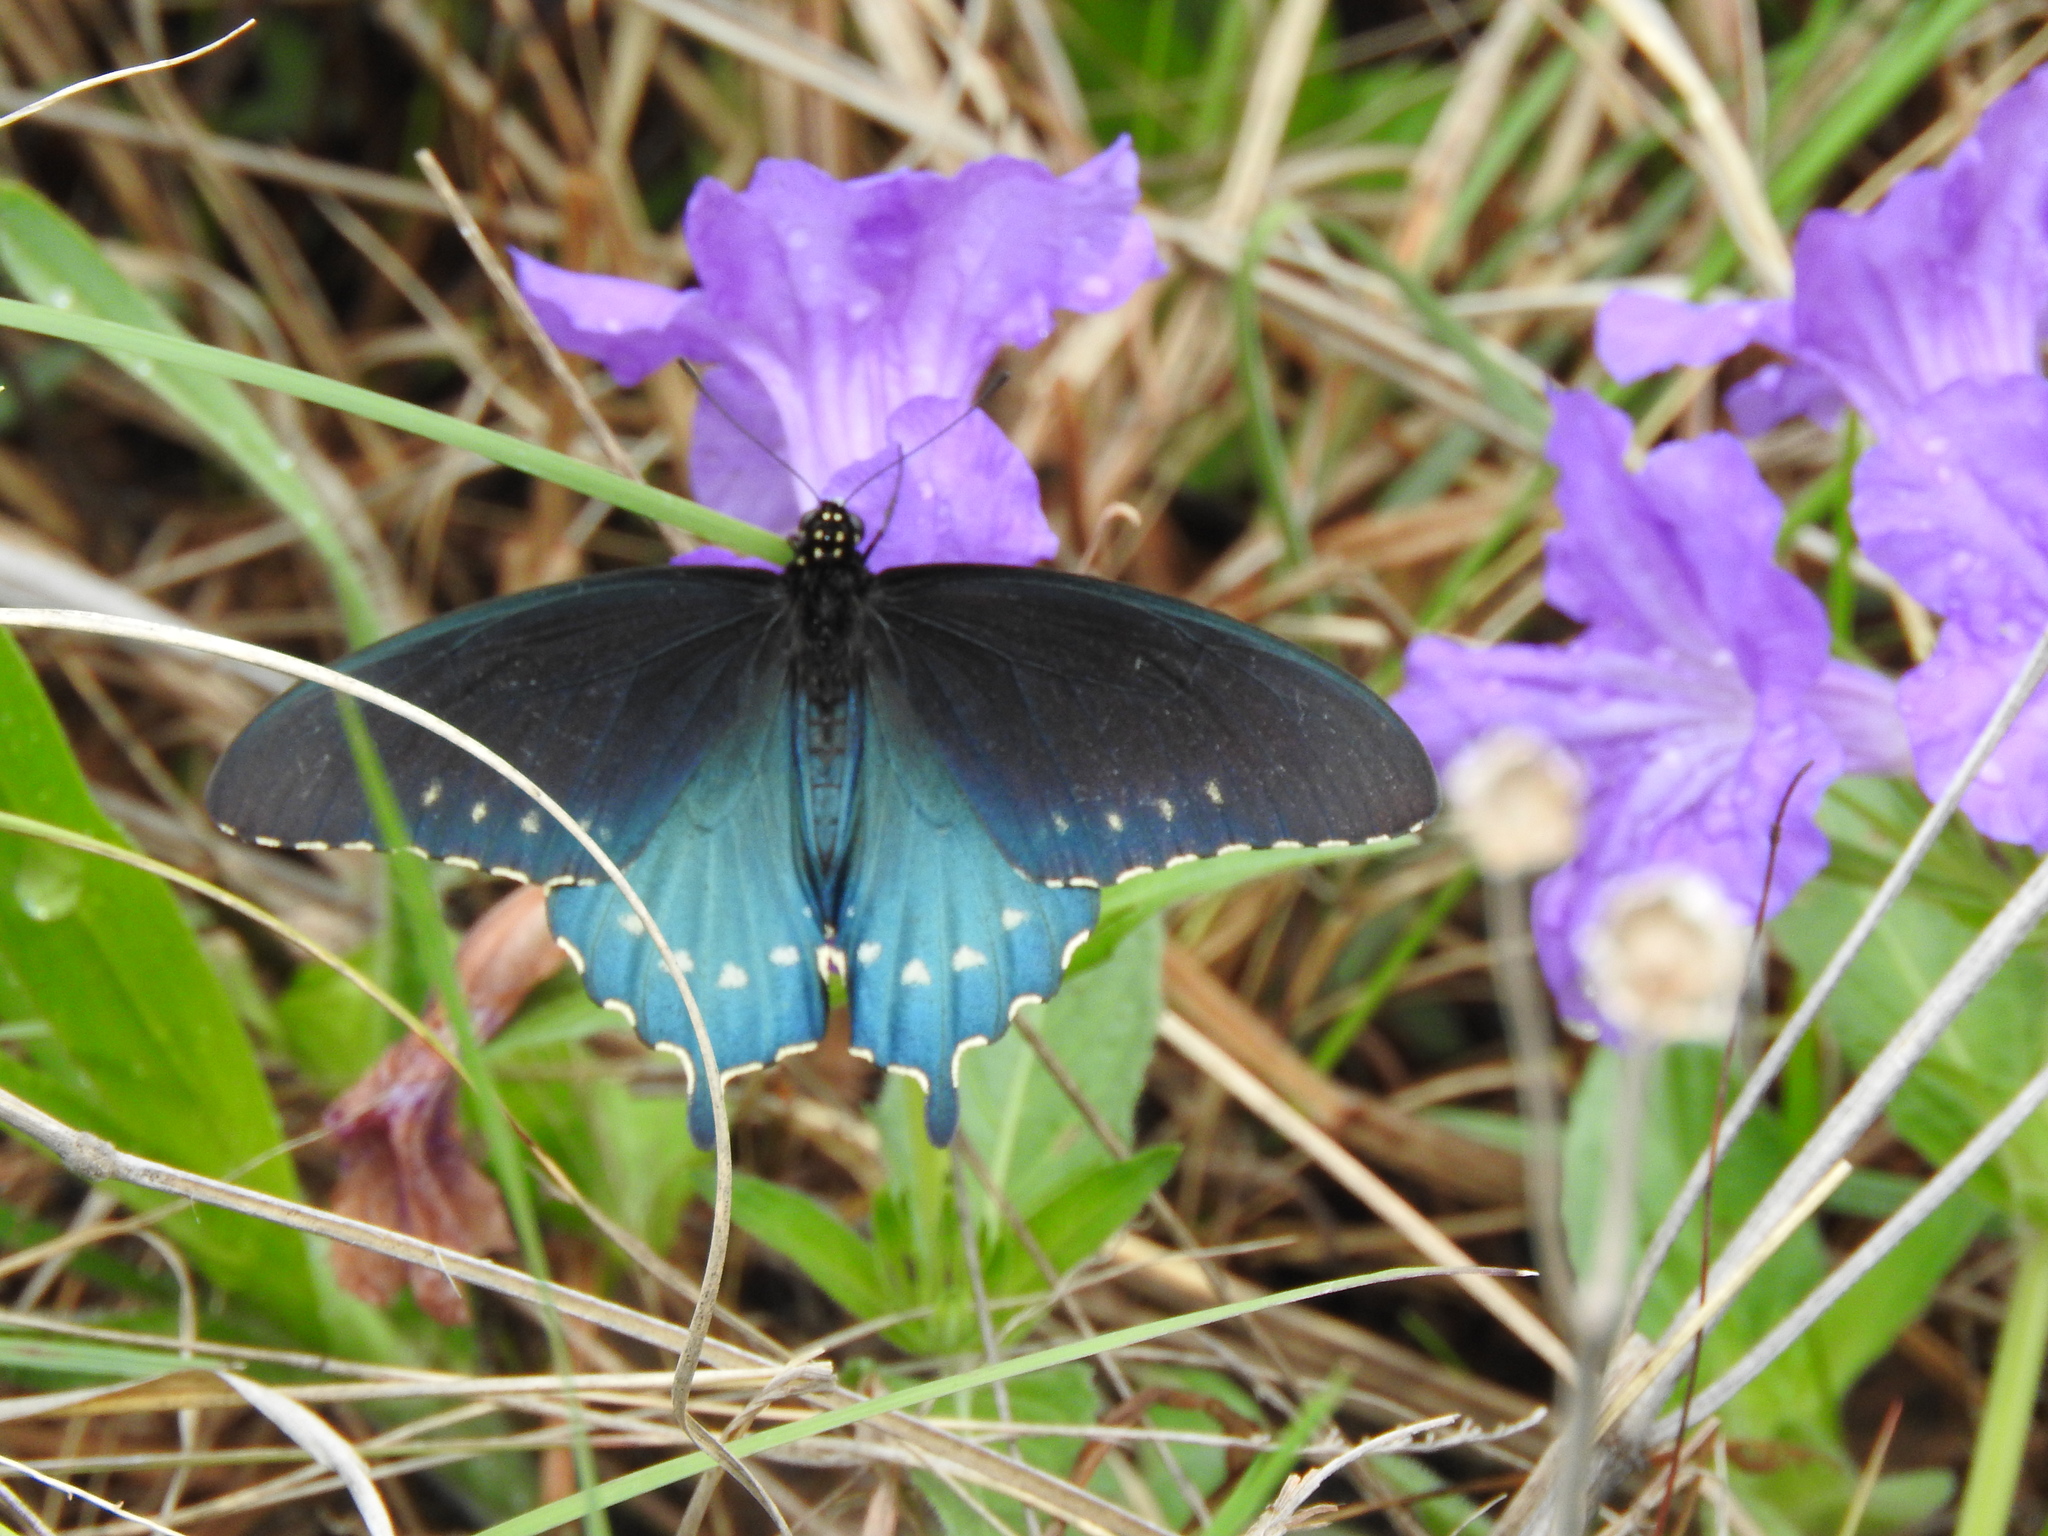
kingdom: Animalia
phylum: Arthropoda
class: Insecta
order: Lepidoptera
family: Papilionidae
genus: Battus
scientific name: Battus philenor
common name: Pipevine swallowtail
